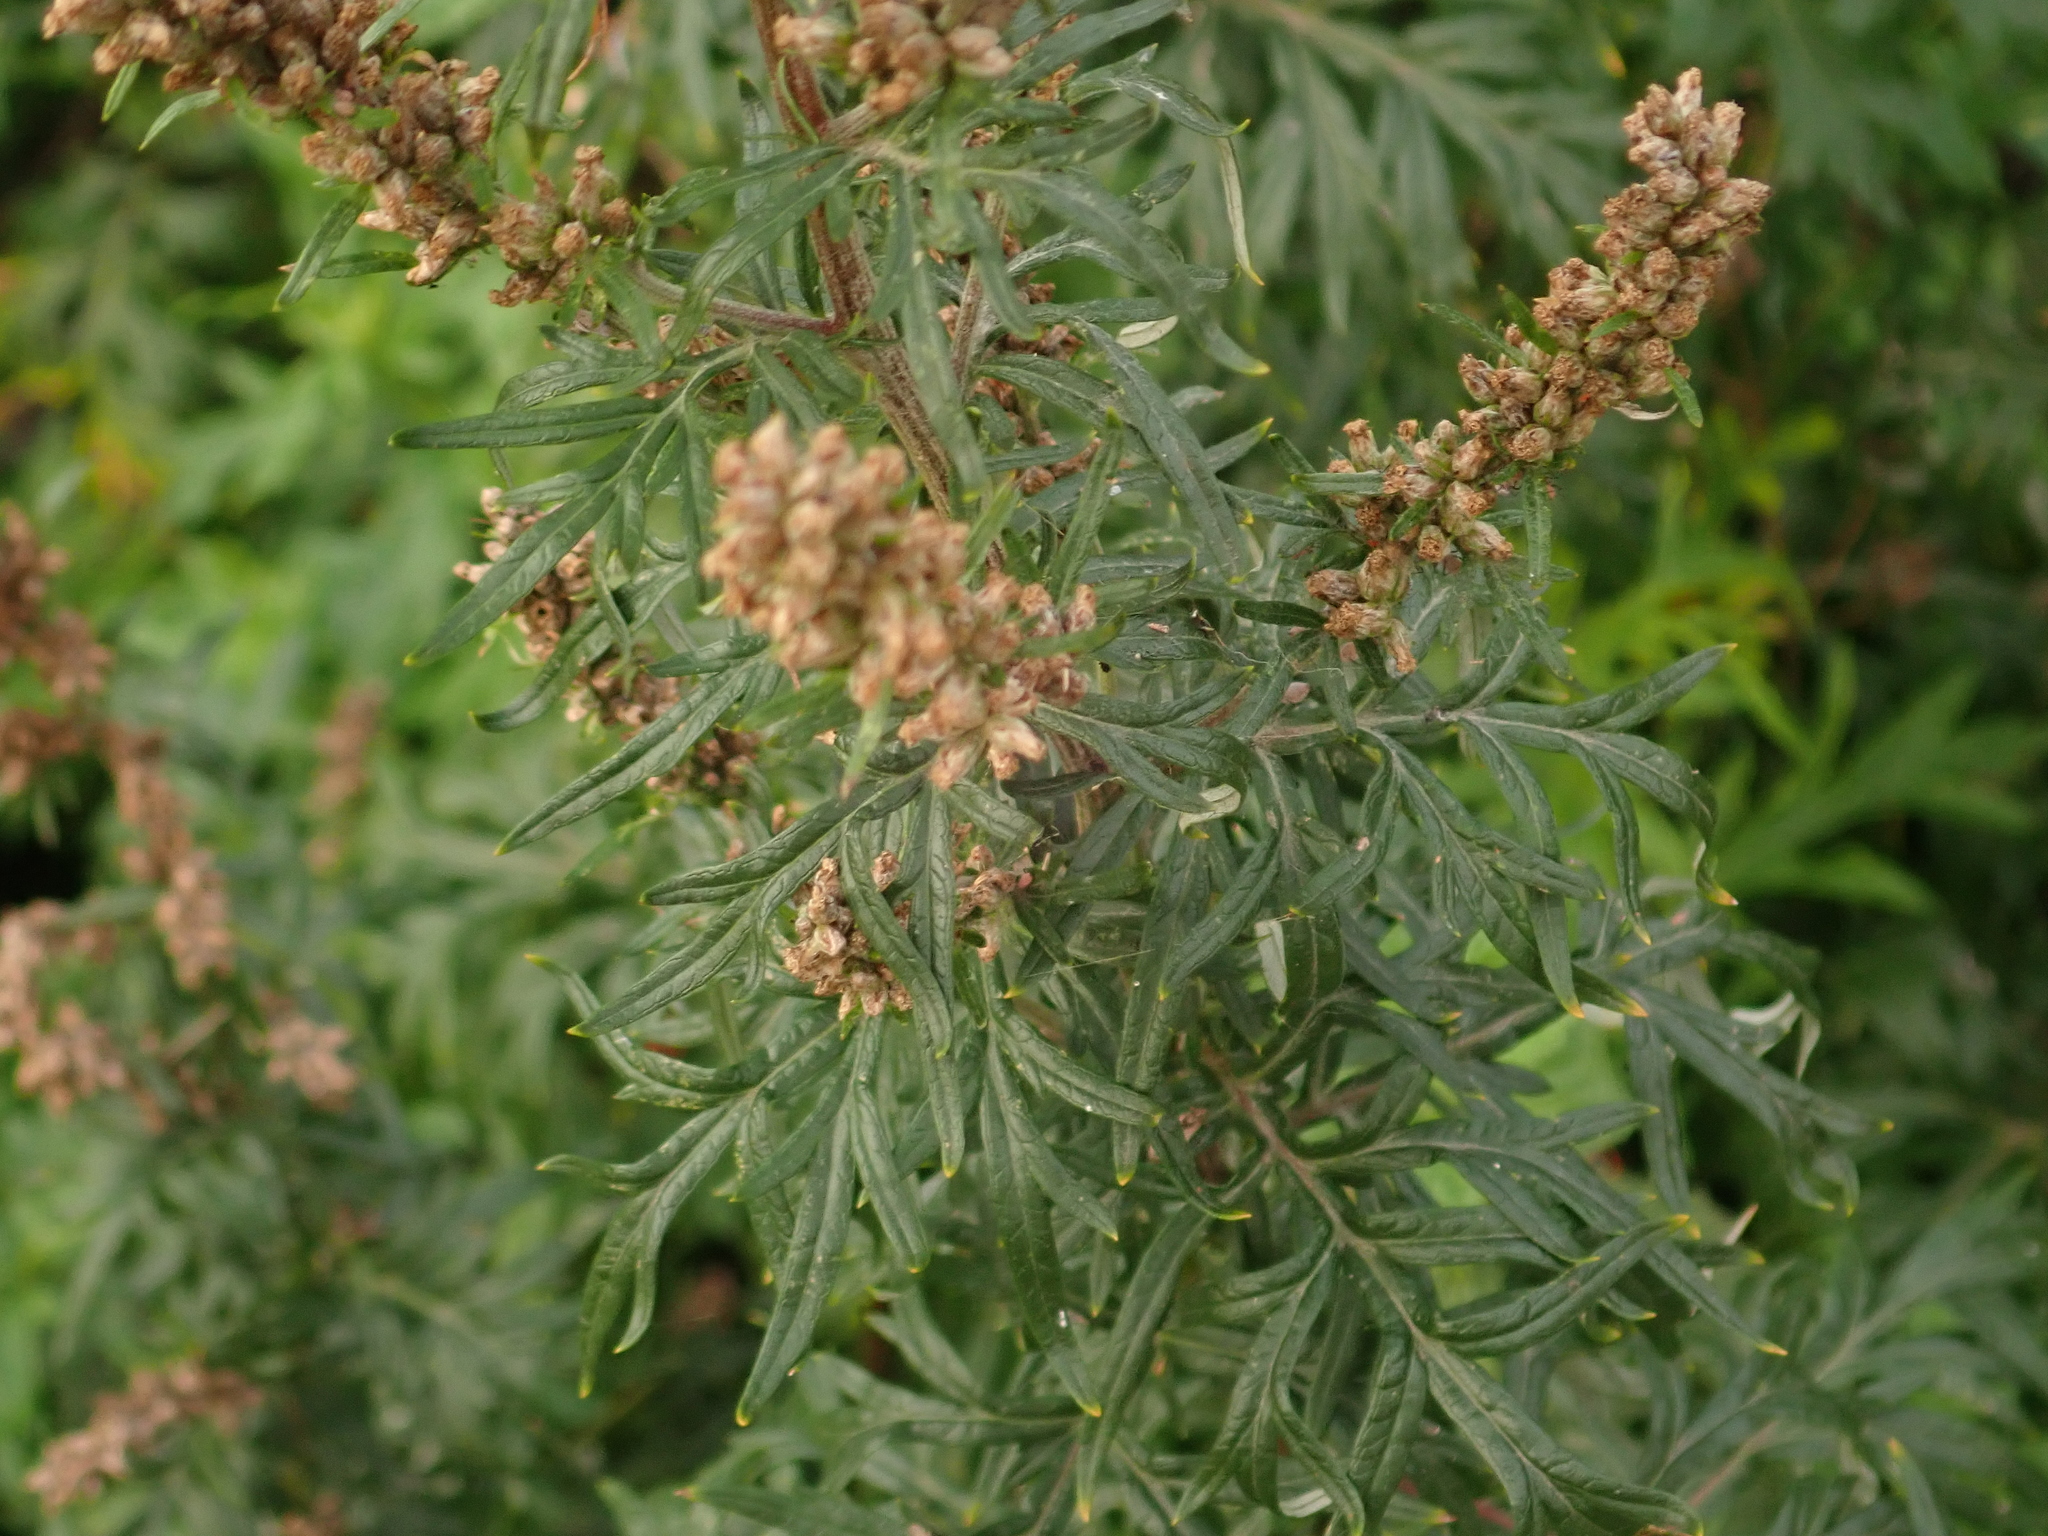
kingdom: Plantae
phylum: Tracheophyta
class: Magnoliopsida
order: Asterales
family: Asteraceae
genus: Artemisia
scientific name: Artemisia vulgaris
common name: Mugwort
